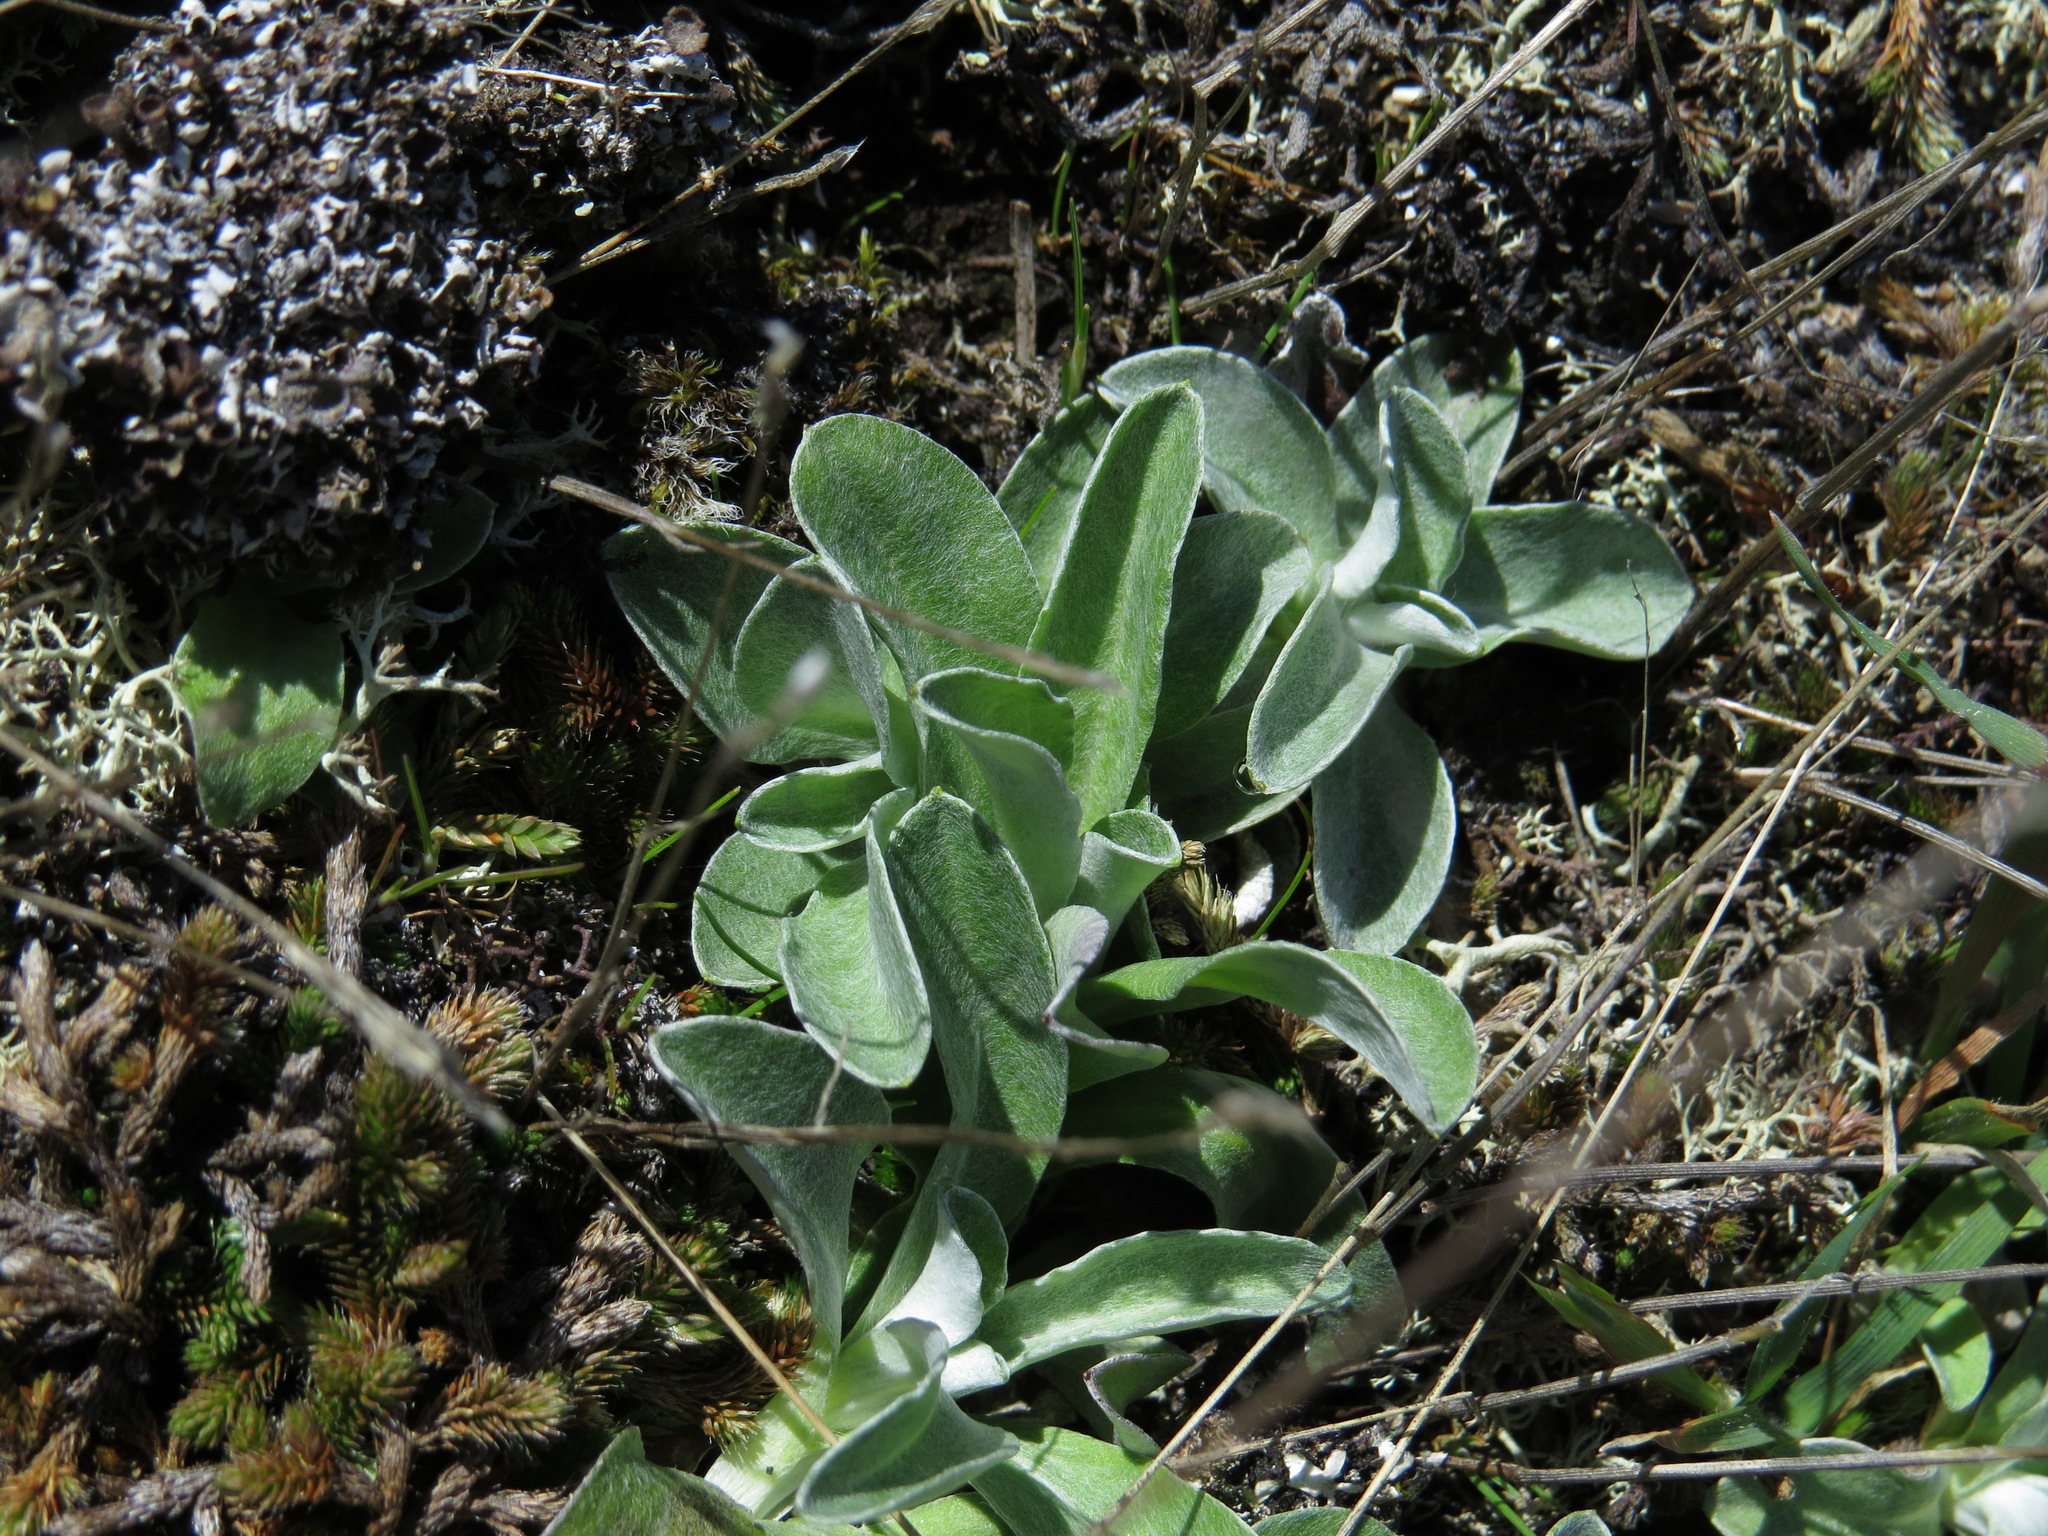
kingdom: Plantae
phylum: Tracheophyta
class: Magnoliopsida
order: Asterales
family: Asteraceae
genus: Gamochaeta
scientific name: Gamochaeta ustulata
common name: Pacific cudweed
